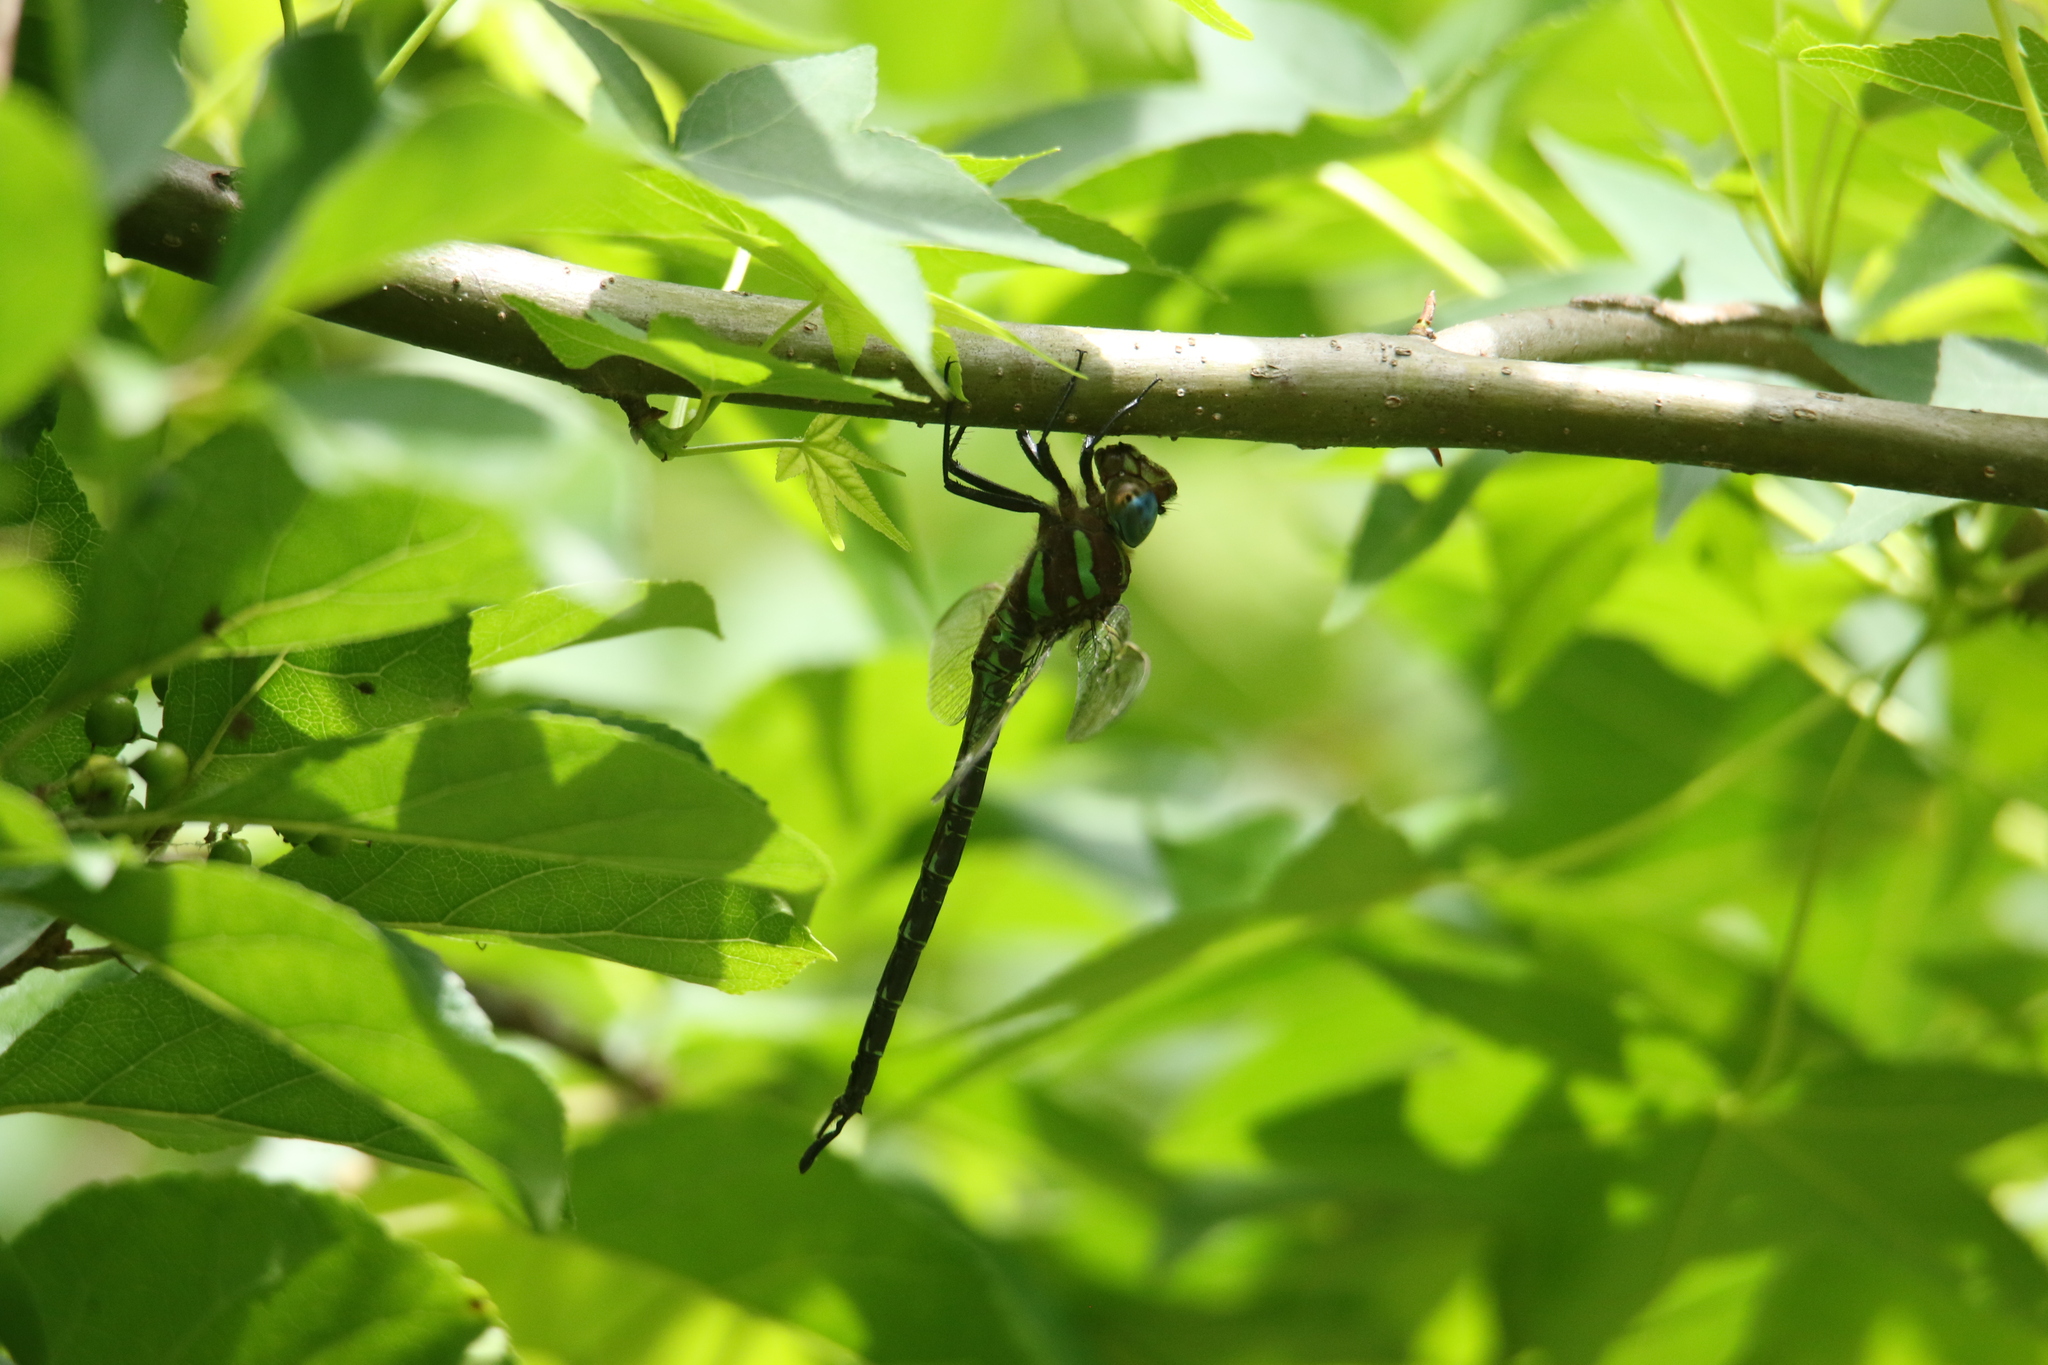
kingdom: Animalia
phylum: Arthropoda
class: Insecta
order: Odonata
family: Aeshnidae
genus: Epiaeschna
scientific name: Epiaeschna heros
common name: Swamp darner
